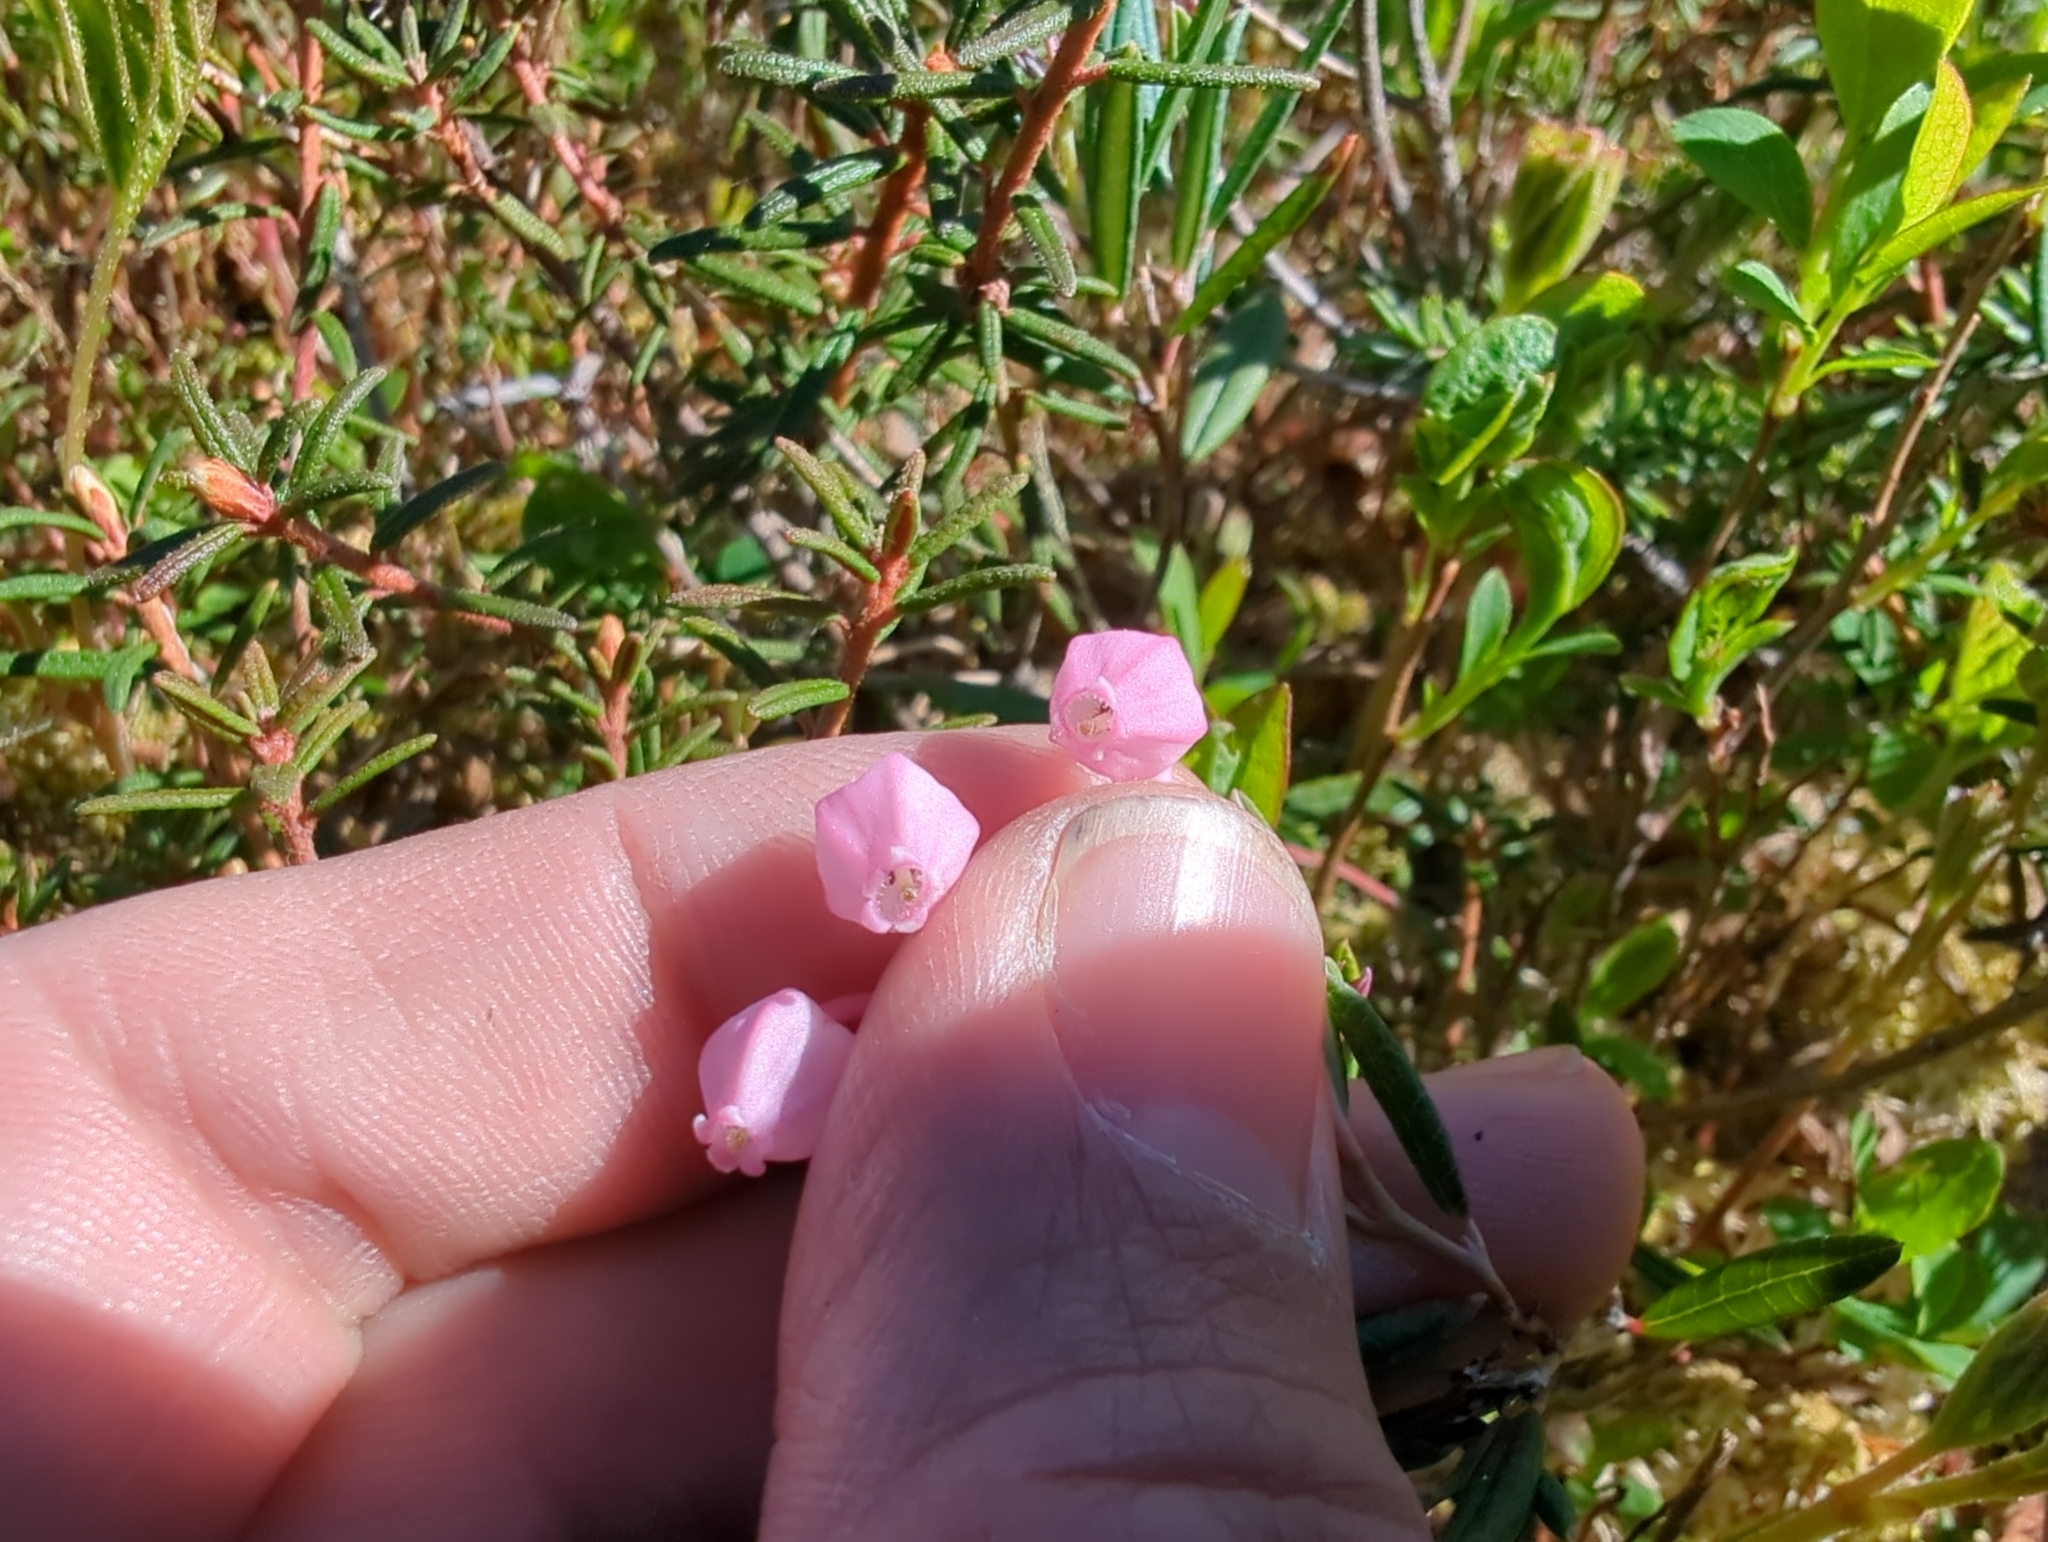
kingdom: Plantae
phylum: Tracheophyta
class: Magnoliopsida
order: Ericales
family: Ericaceae
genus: Andromeda
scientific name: Andromeda polifolia
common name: Bog-rosemary
